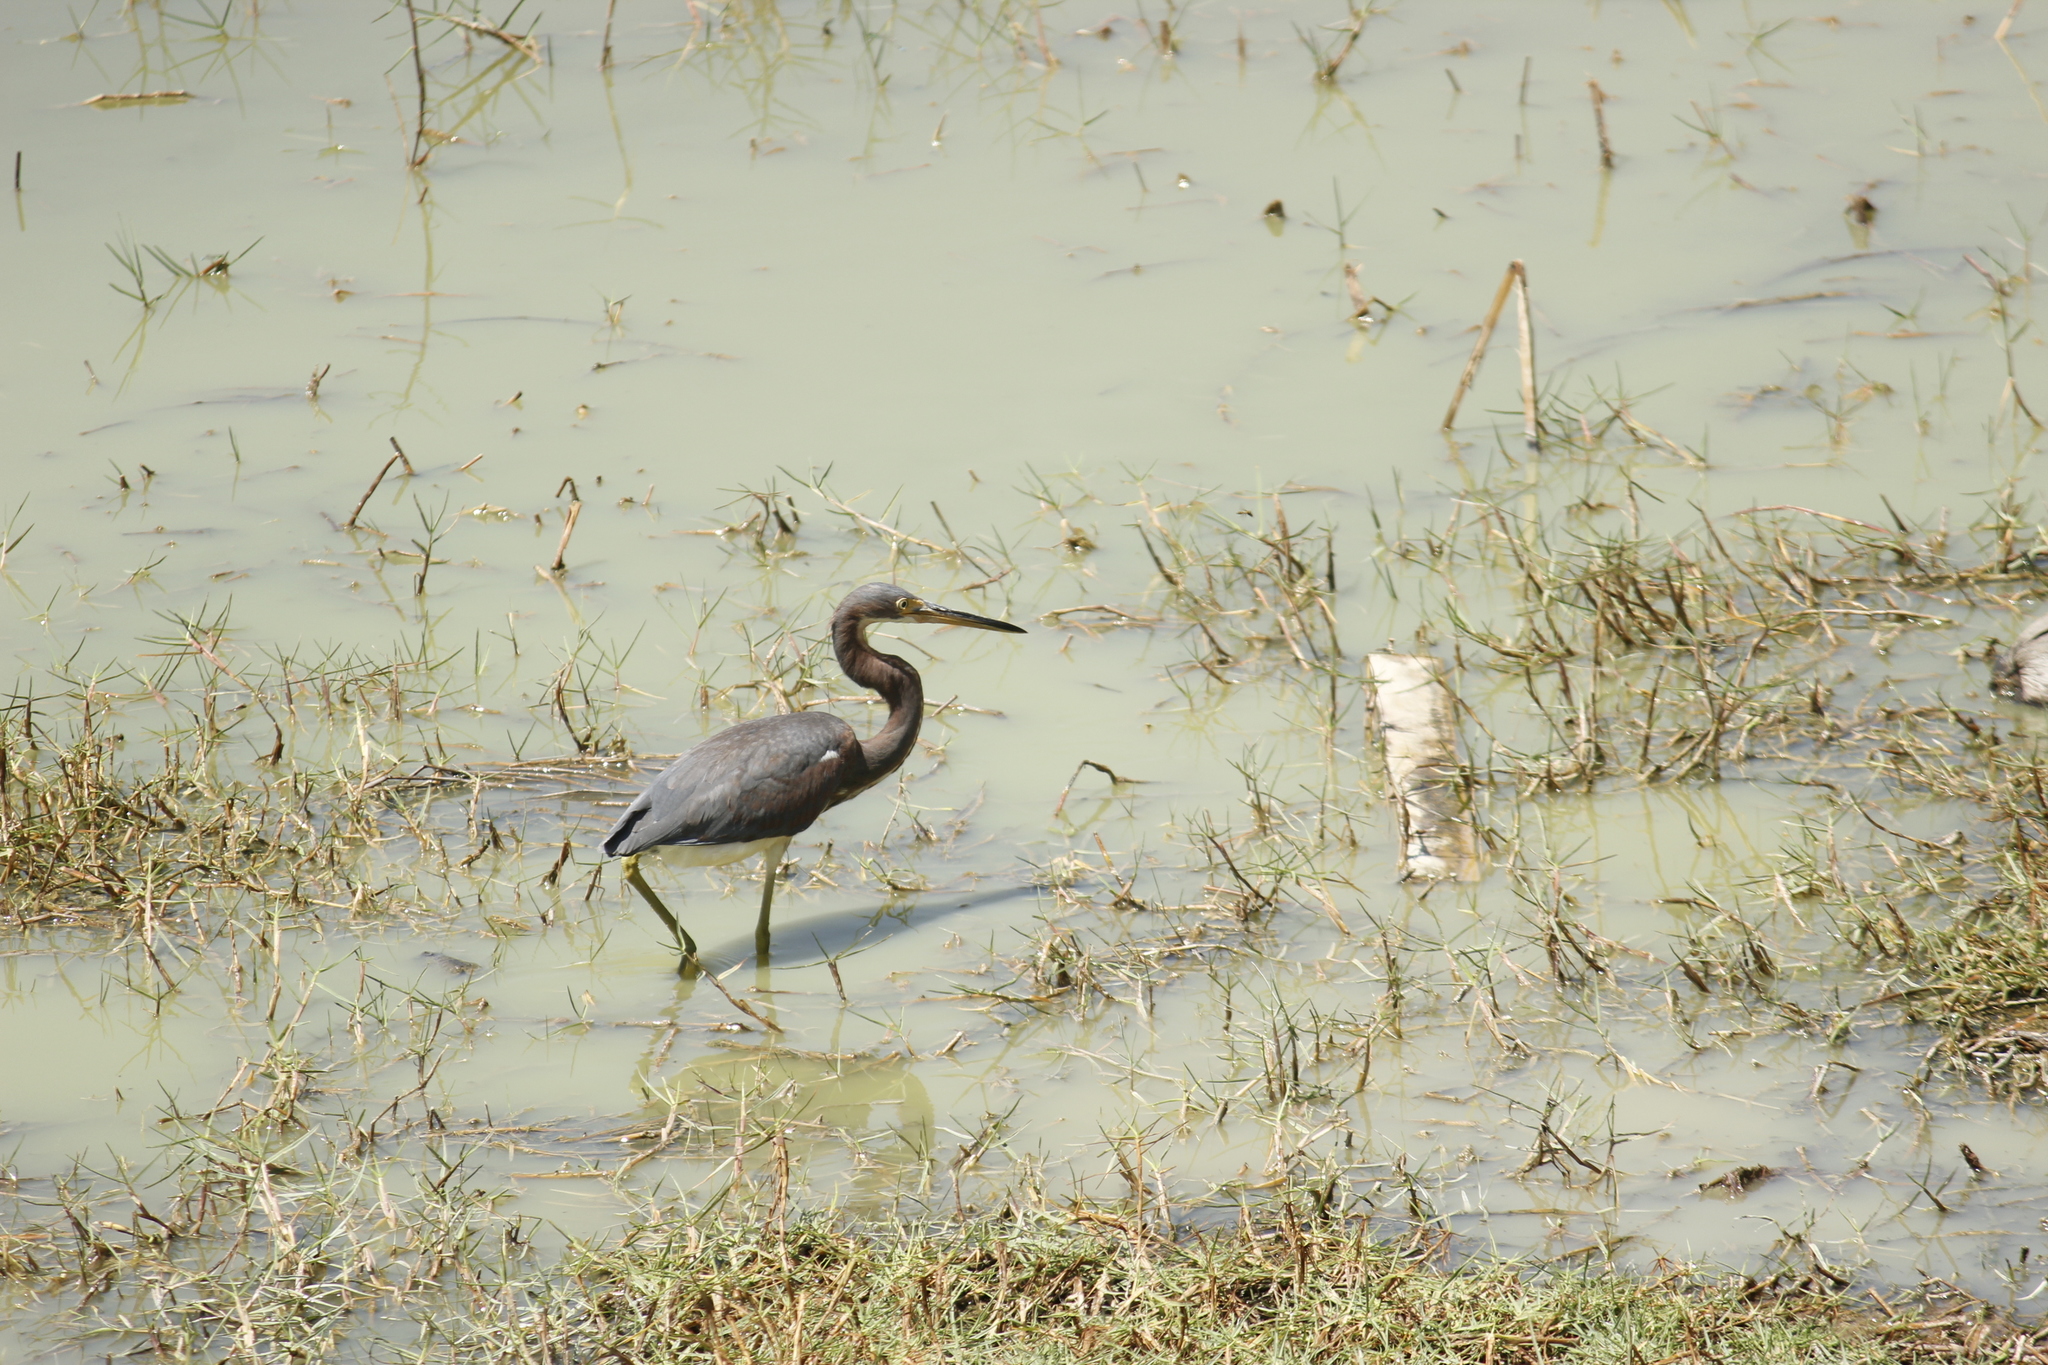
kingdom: Animalia
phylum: Chordata
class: Aves
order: Pelecaniformes
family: Ardeidae
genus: Egretta
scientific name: Egretta tricolor
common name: Tricolored heron
